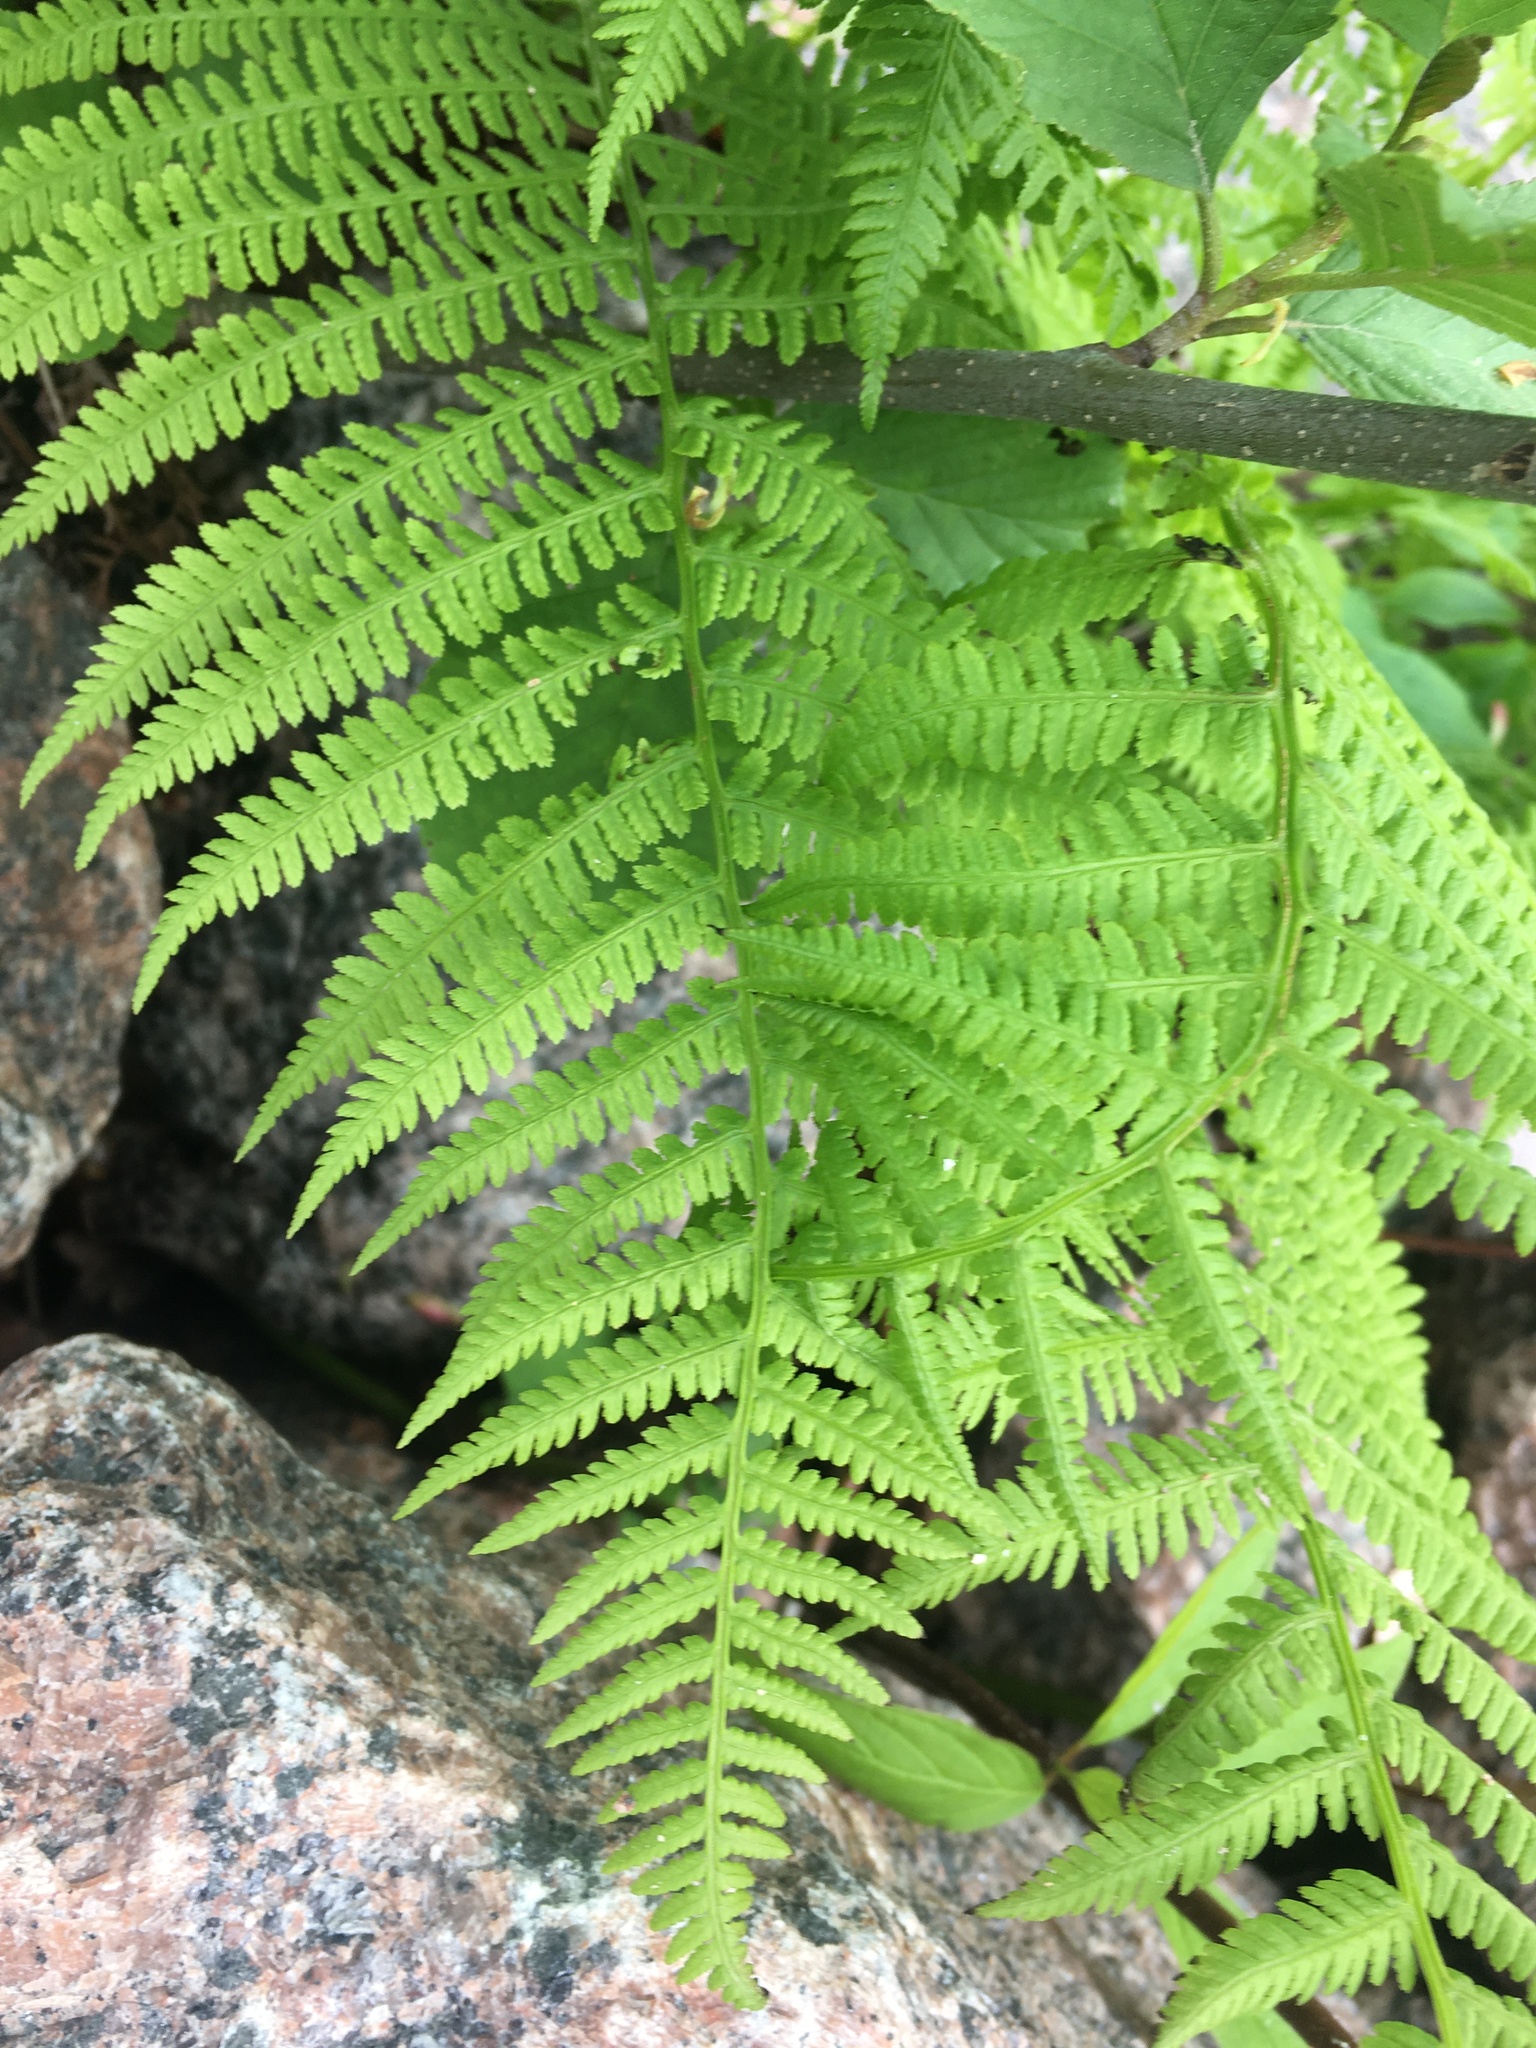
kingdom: Plantae
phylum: Tracheophyta
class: Polypodiopsida
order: Polypodiales
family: Athyriaceae
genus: Athyrium
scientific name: Athyrium filix-femina
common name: Lady fern
